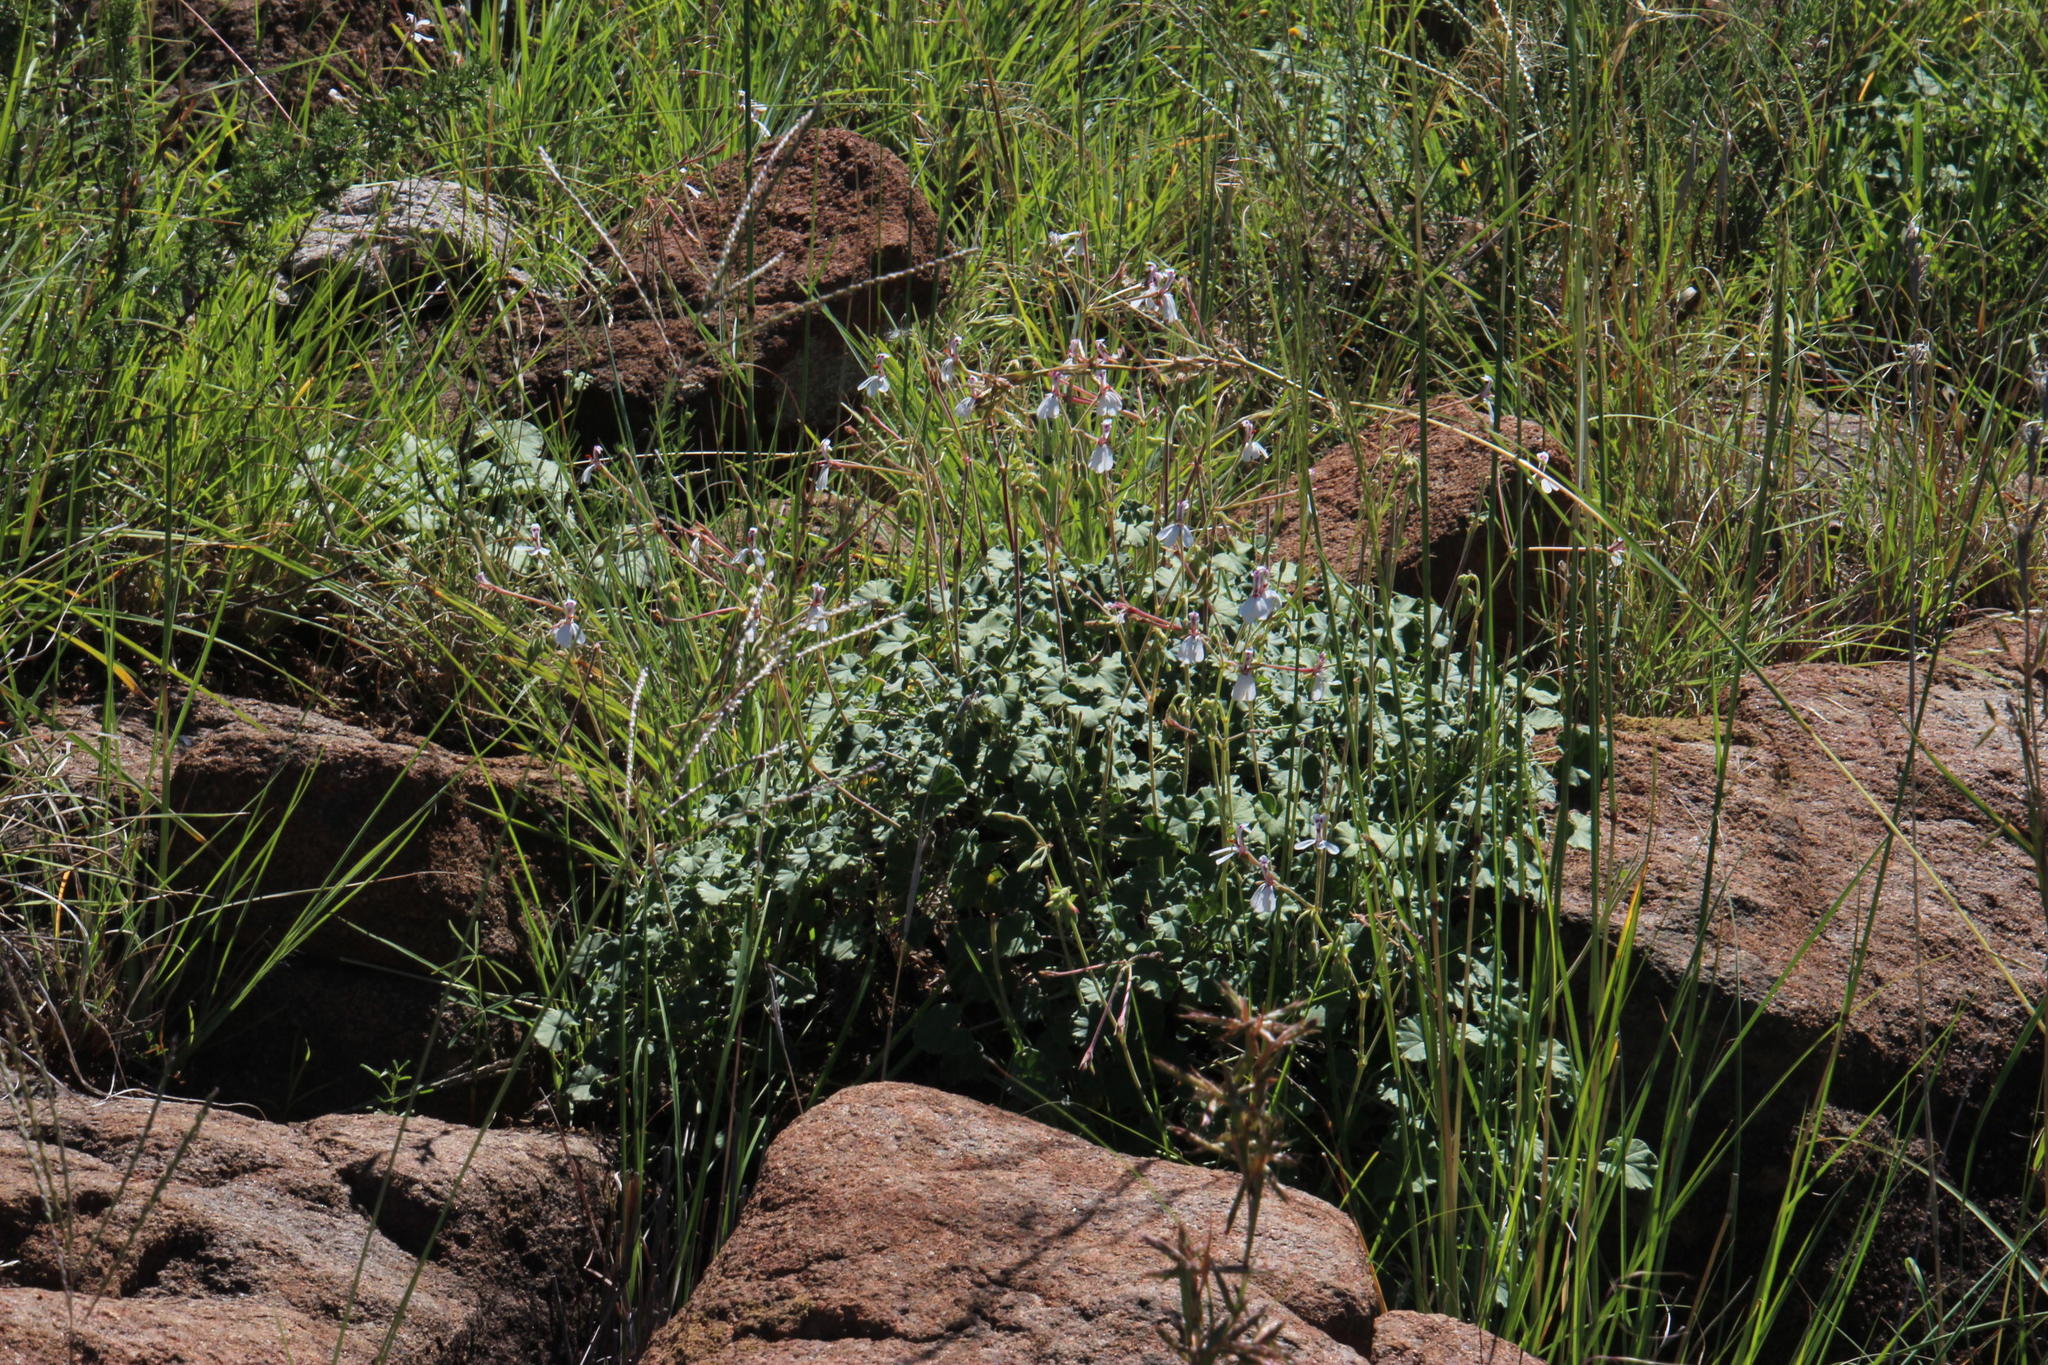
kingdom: Plantae
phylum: Tracheophyta
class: Magnoliopsida
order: Geraniales
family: Geraniaceae
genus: Pelargonium
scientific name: Pelargonium dichondrifolium
